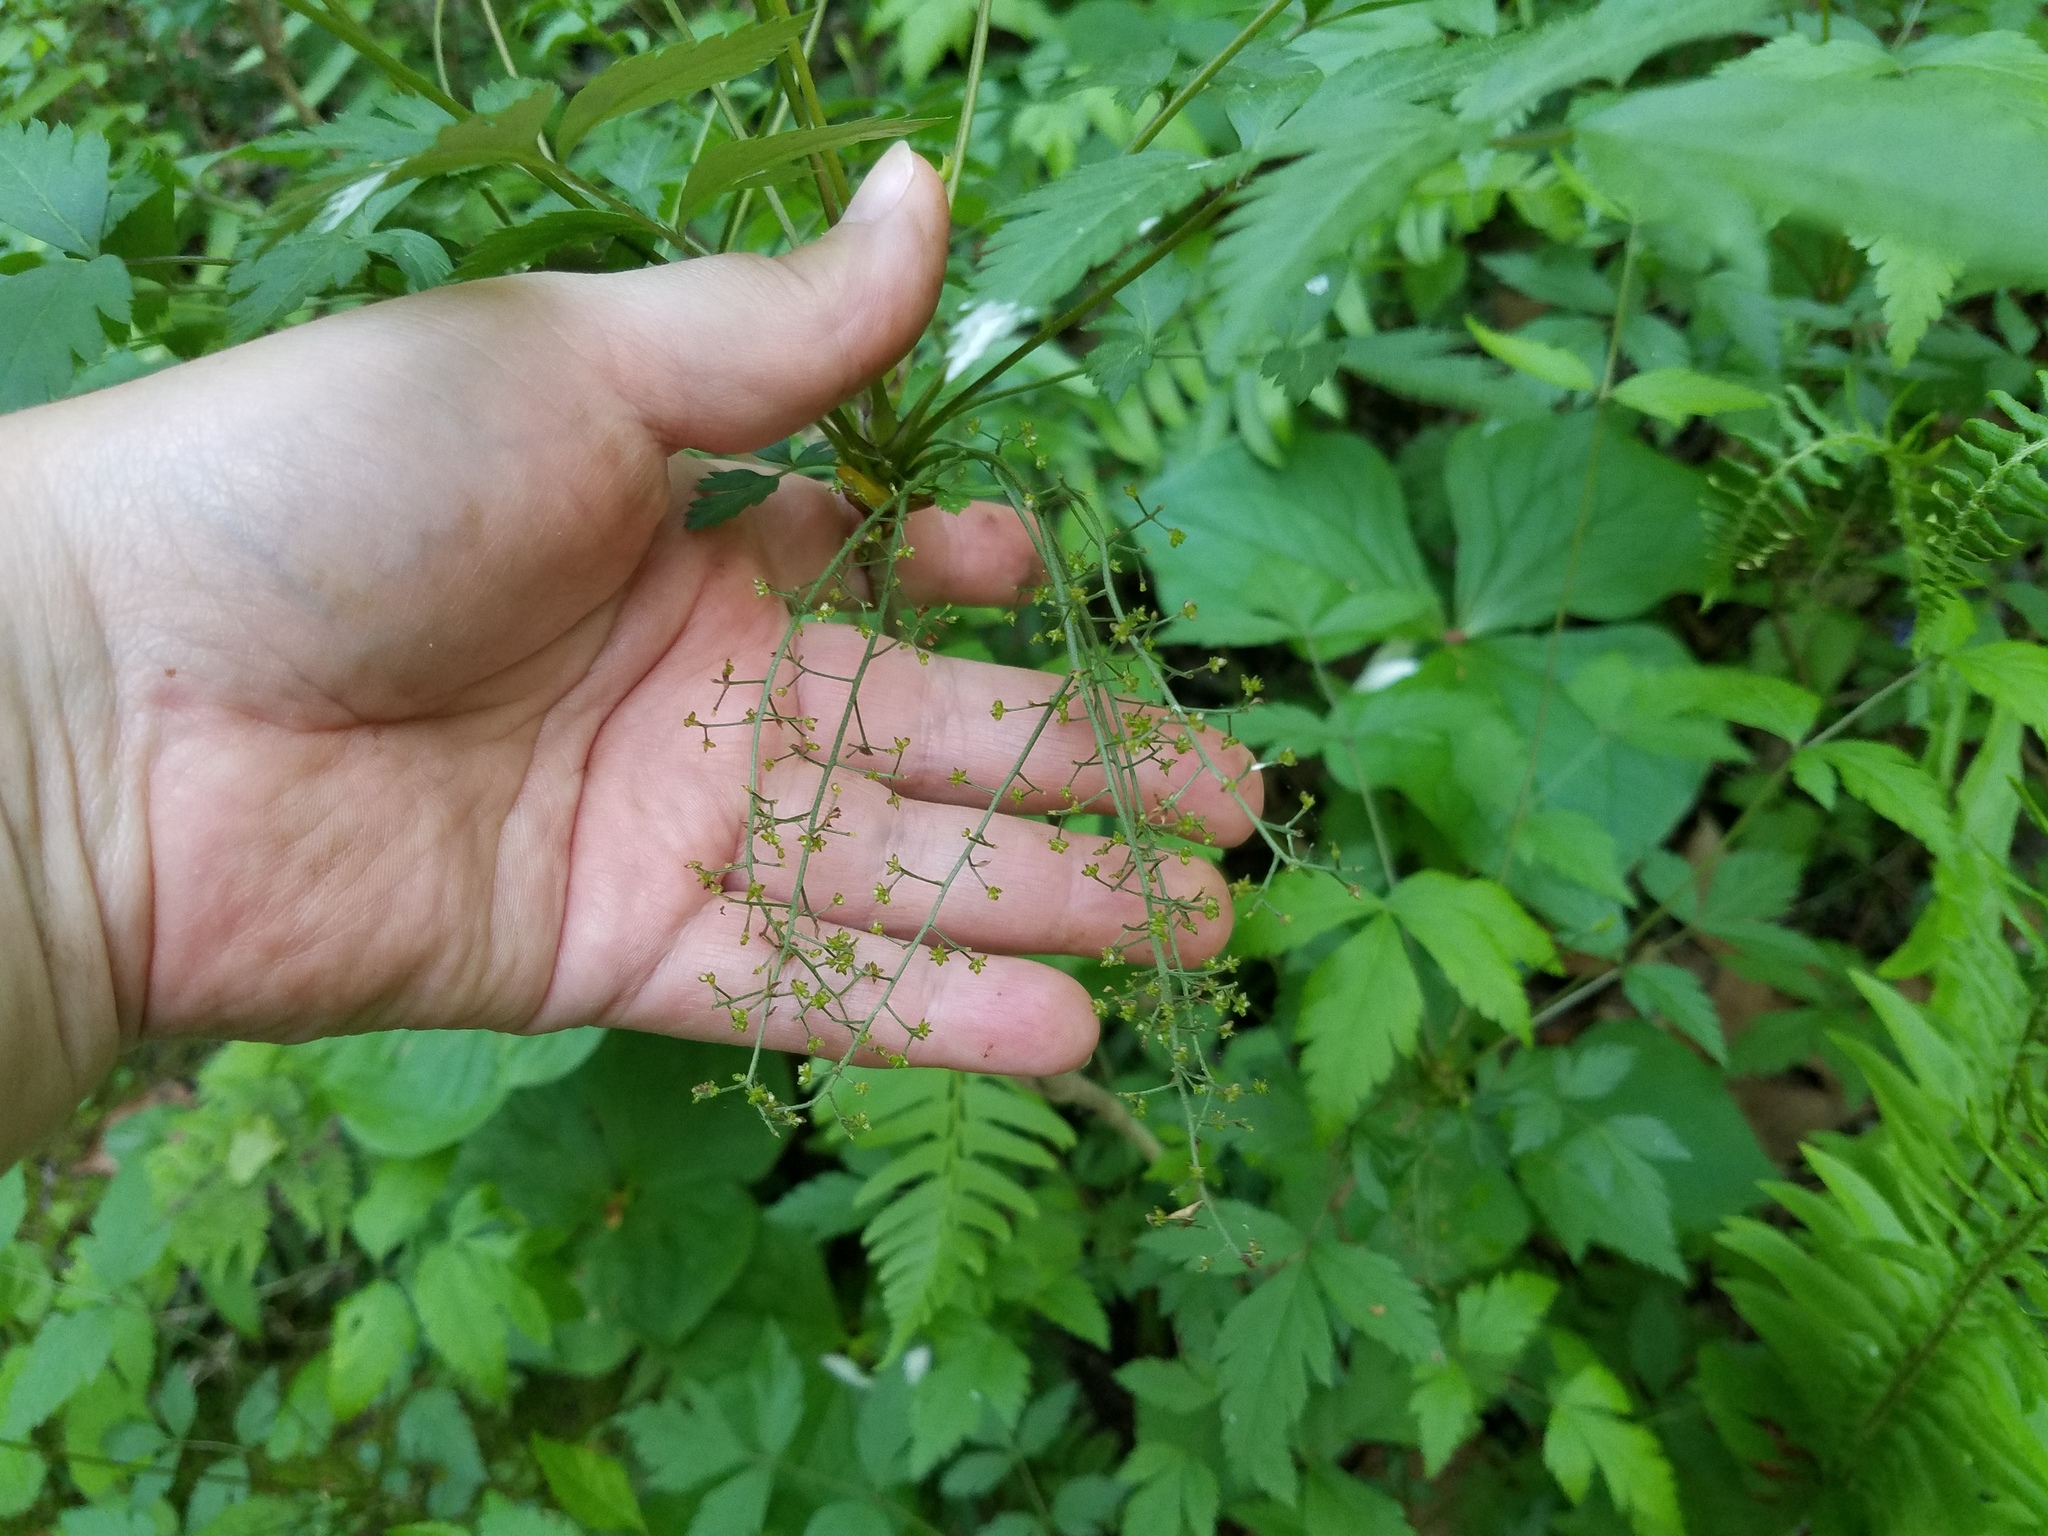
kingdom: Plantae
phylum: Tracheophyta
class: Magnoliopsida
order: Ranunculales
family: Ranunculaceae
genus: Xanthorhiza
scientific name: Xanthorhiza simplicissima
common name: Yellowroot
